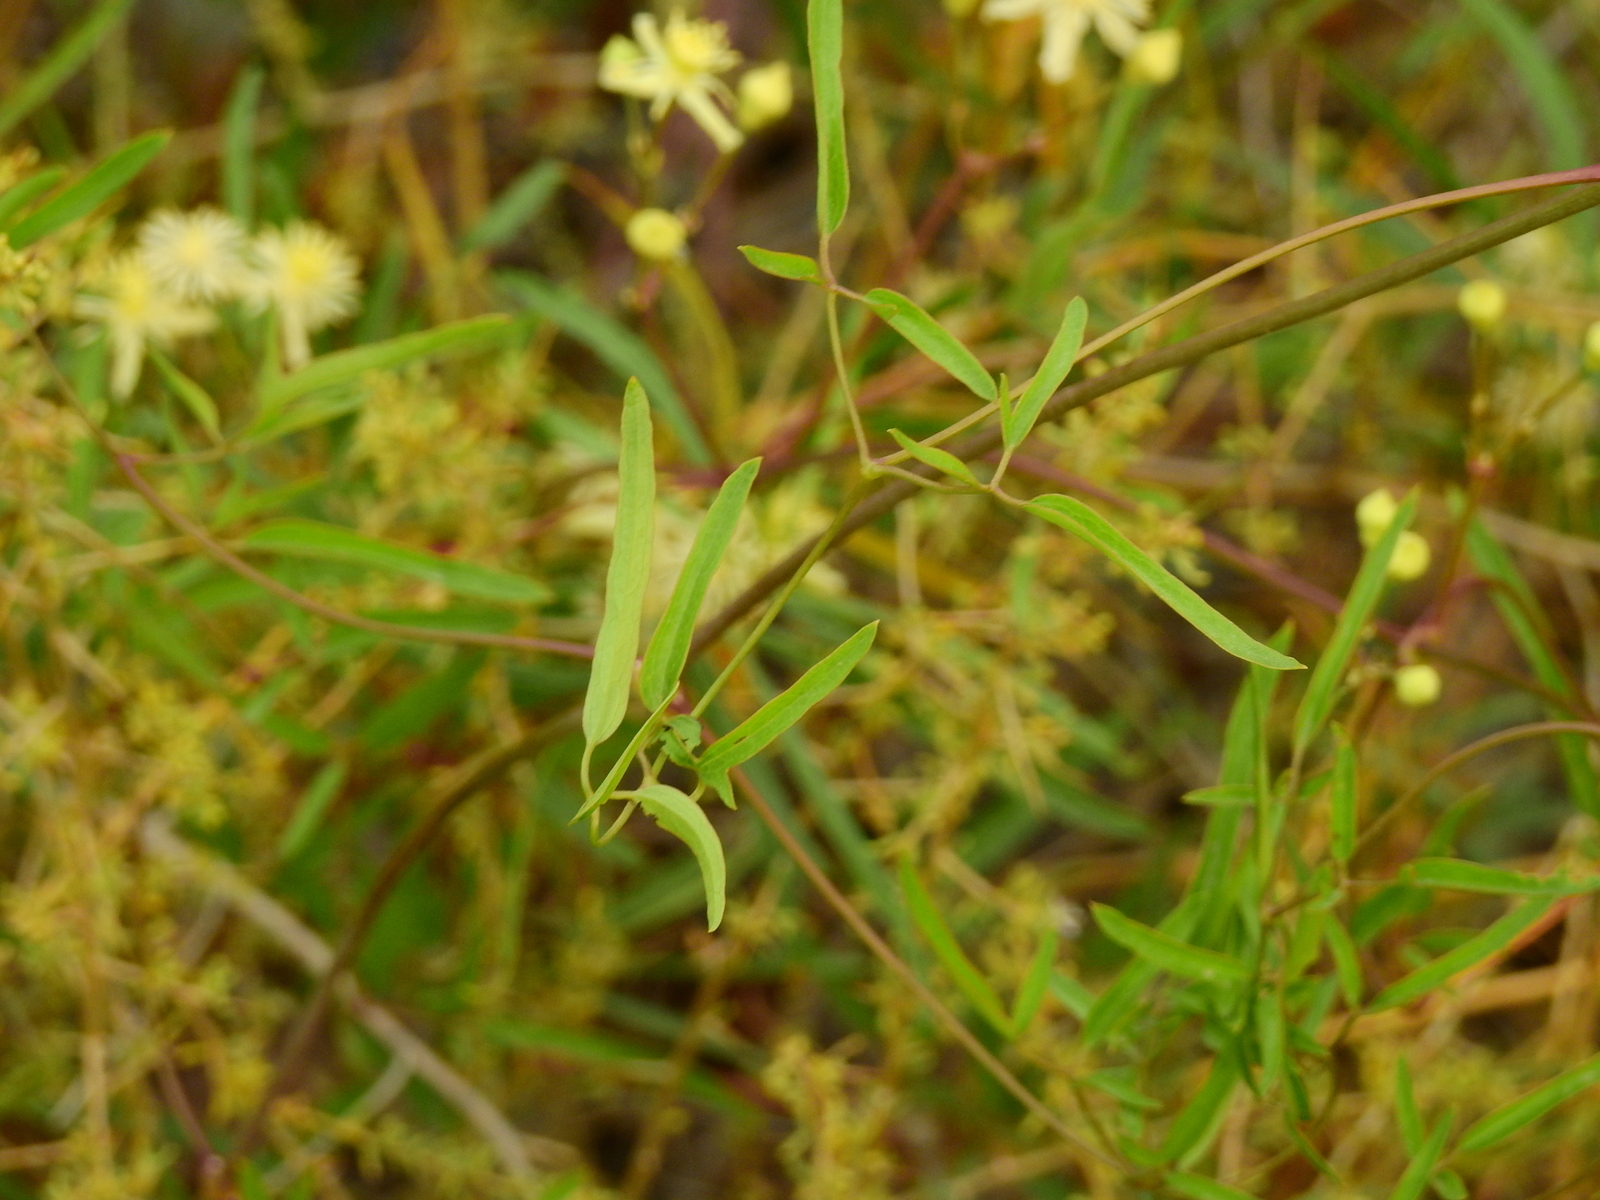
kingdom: Plantae
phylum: Tracheophyta
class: Magnoliopsida
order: Ranunculales
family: Ranunculaceae
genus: Clematis
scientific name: Clematis montevidensis
